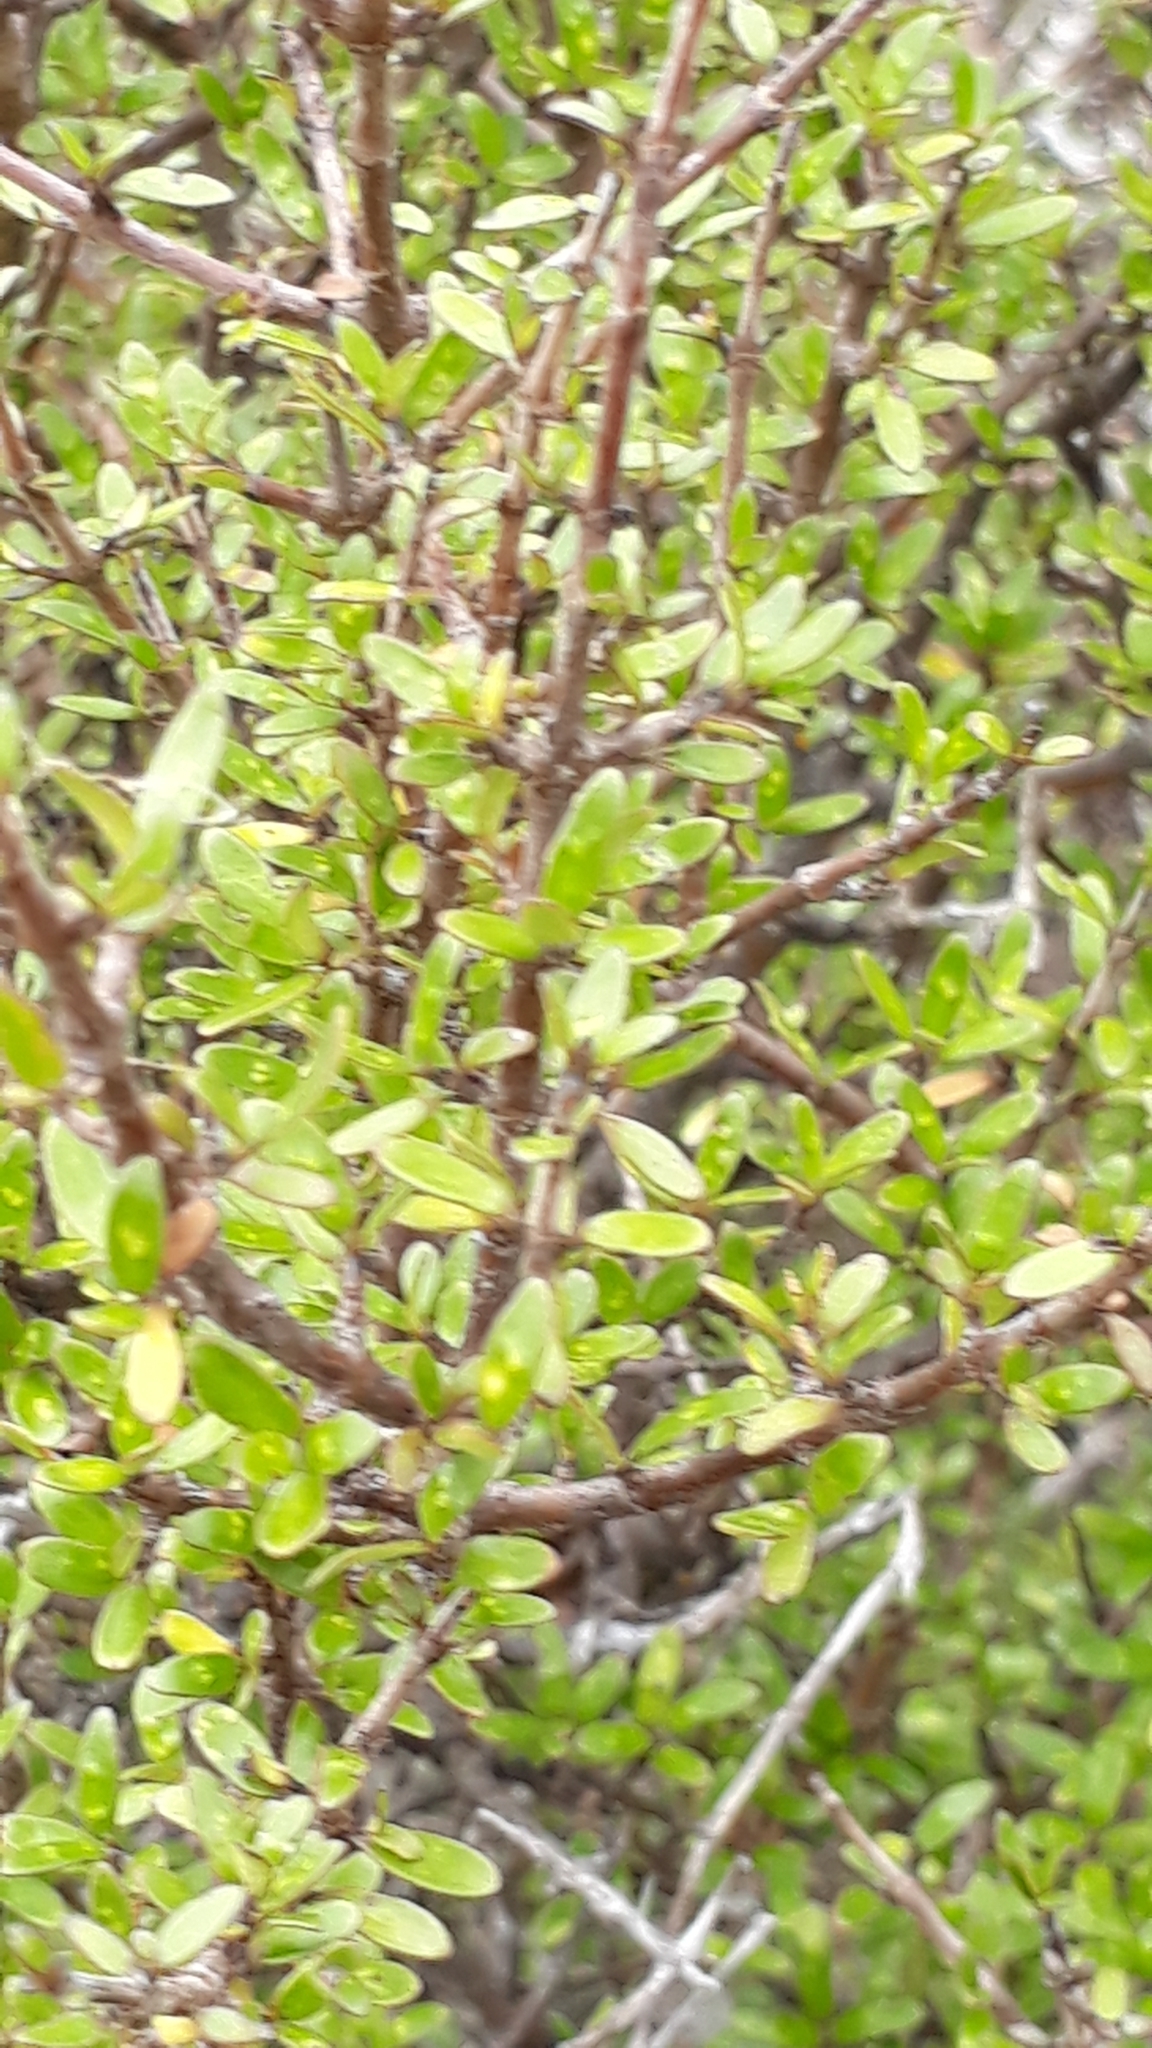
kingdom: Plantae
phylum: Tracheophyta
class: Magnoliopsida
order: Gentianales
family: Rubiaceae
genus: Coprosma
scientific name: Coprosma propinqua
